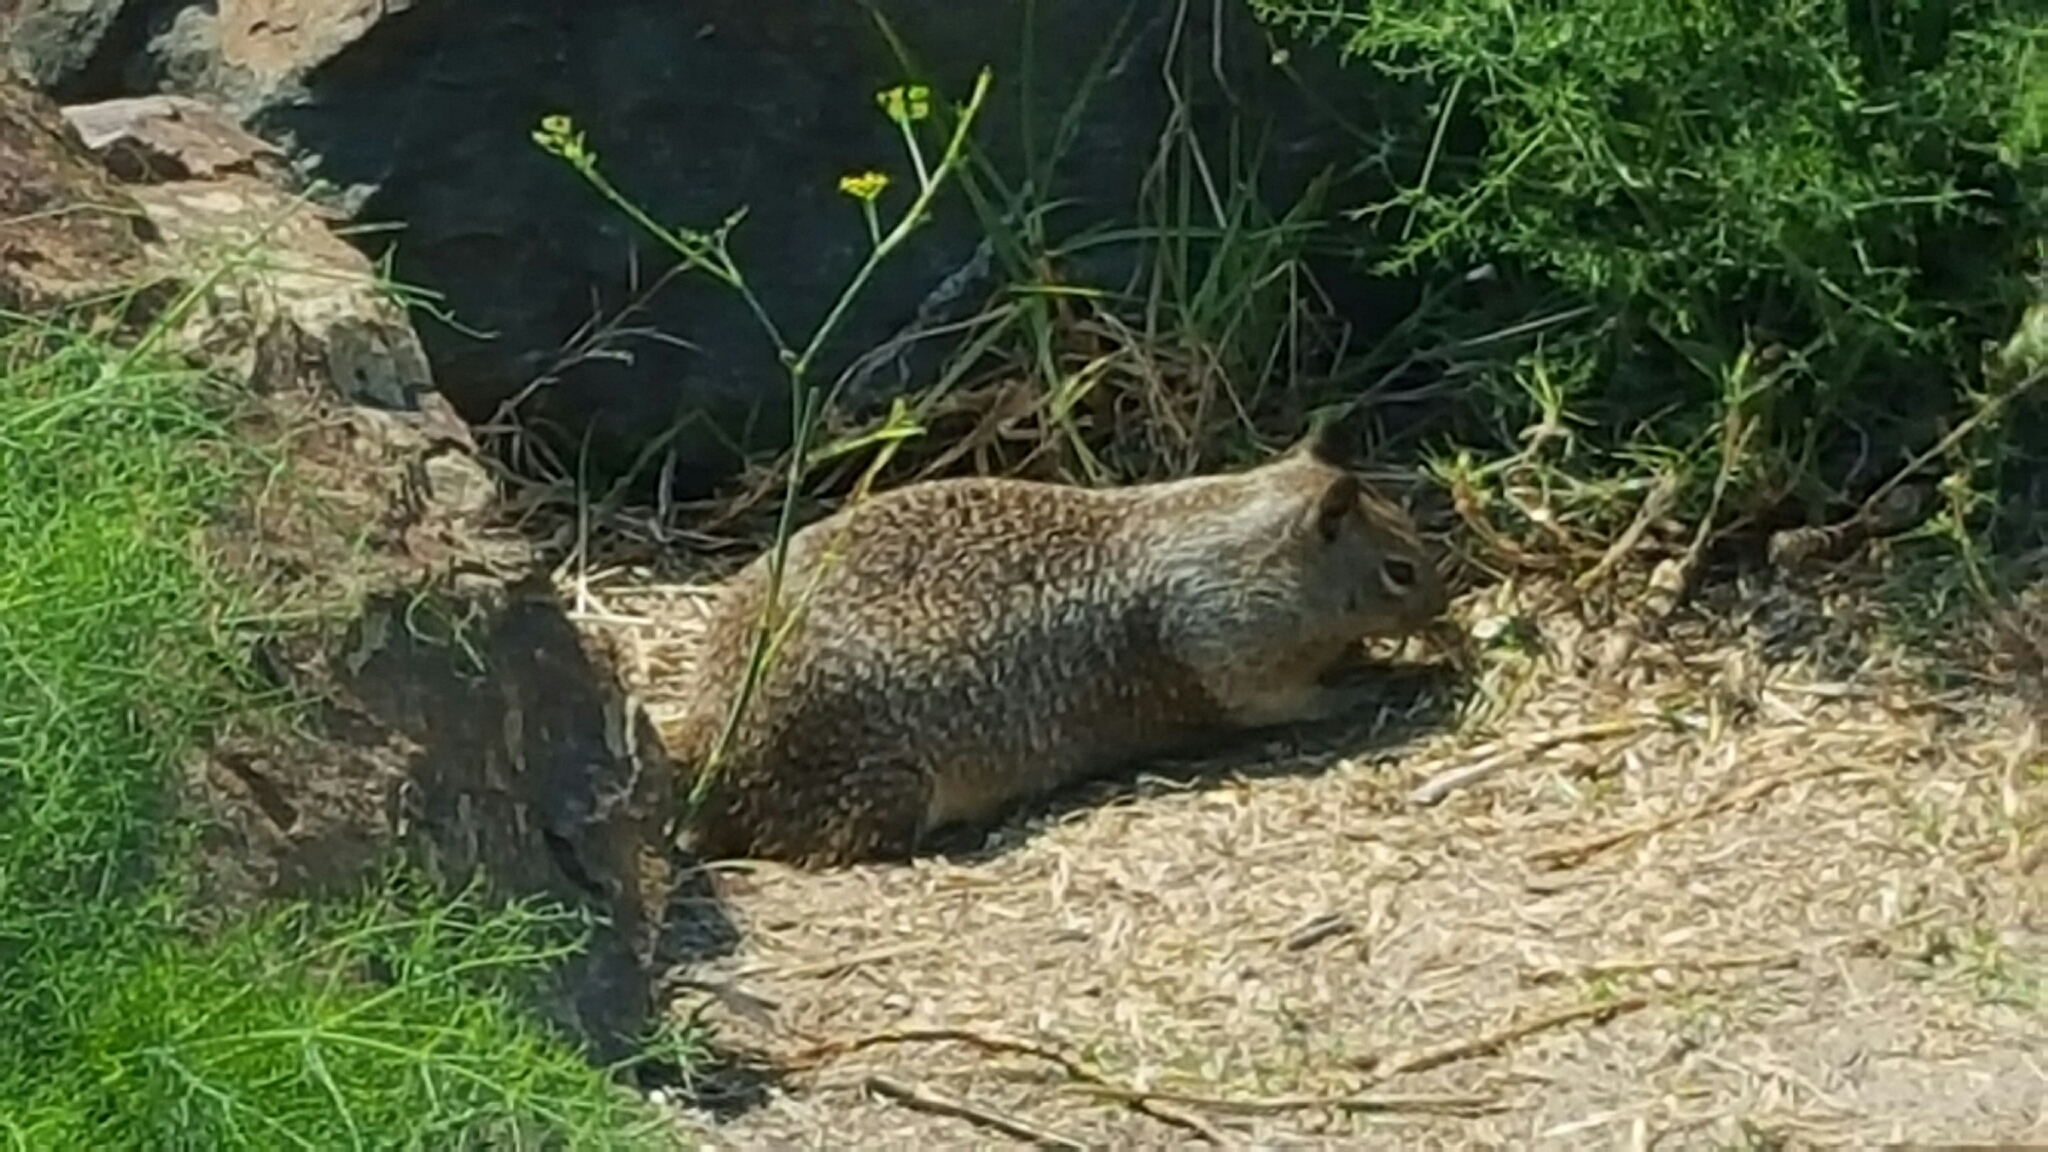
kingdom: Animalia
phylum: Chordata
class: Mammalia
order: Rodentia
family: Sciuridae
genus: Otospermophilus
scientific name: Otospermophilus beecheyi
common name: California ground squirrel
